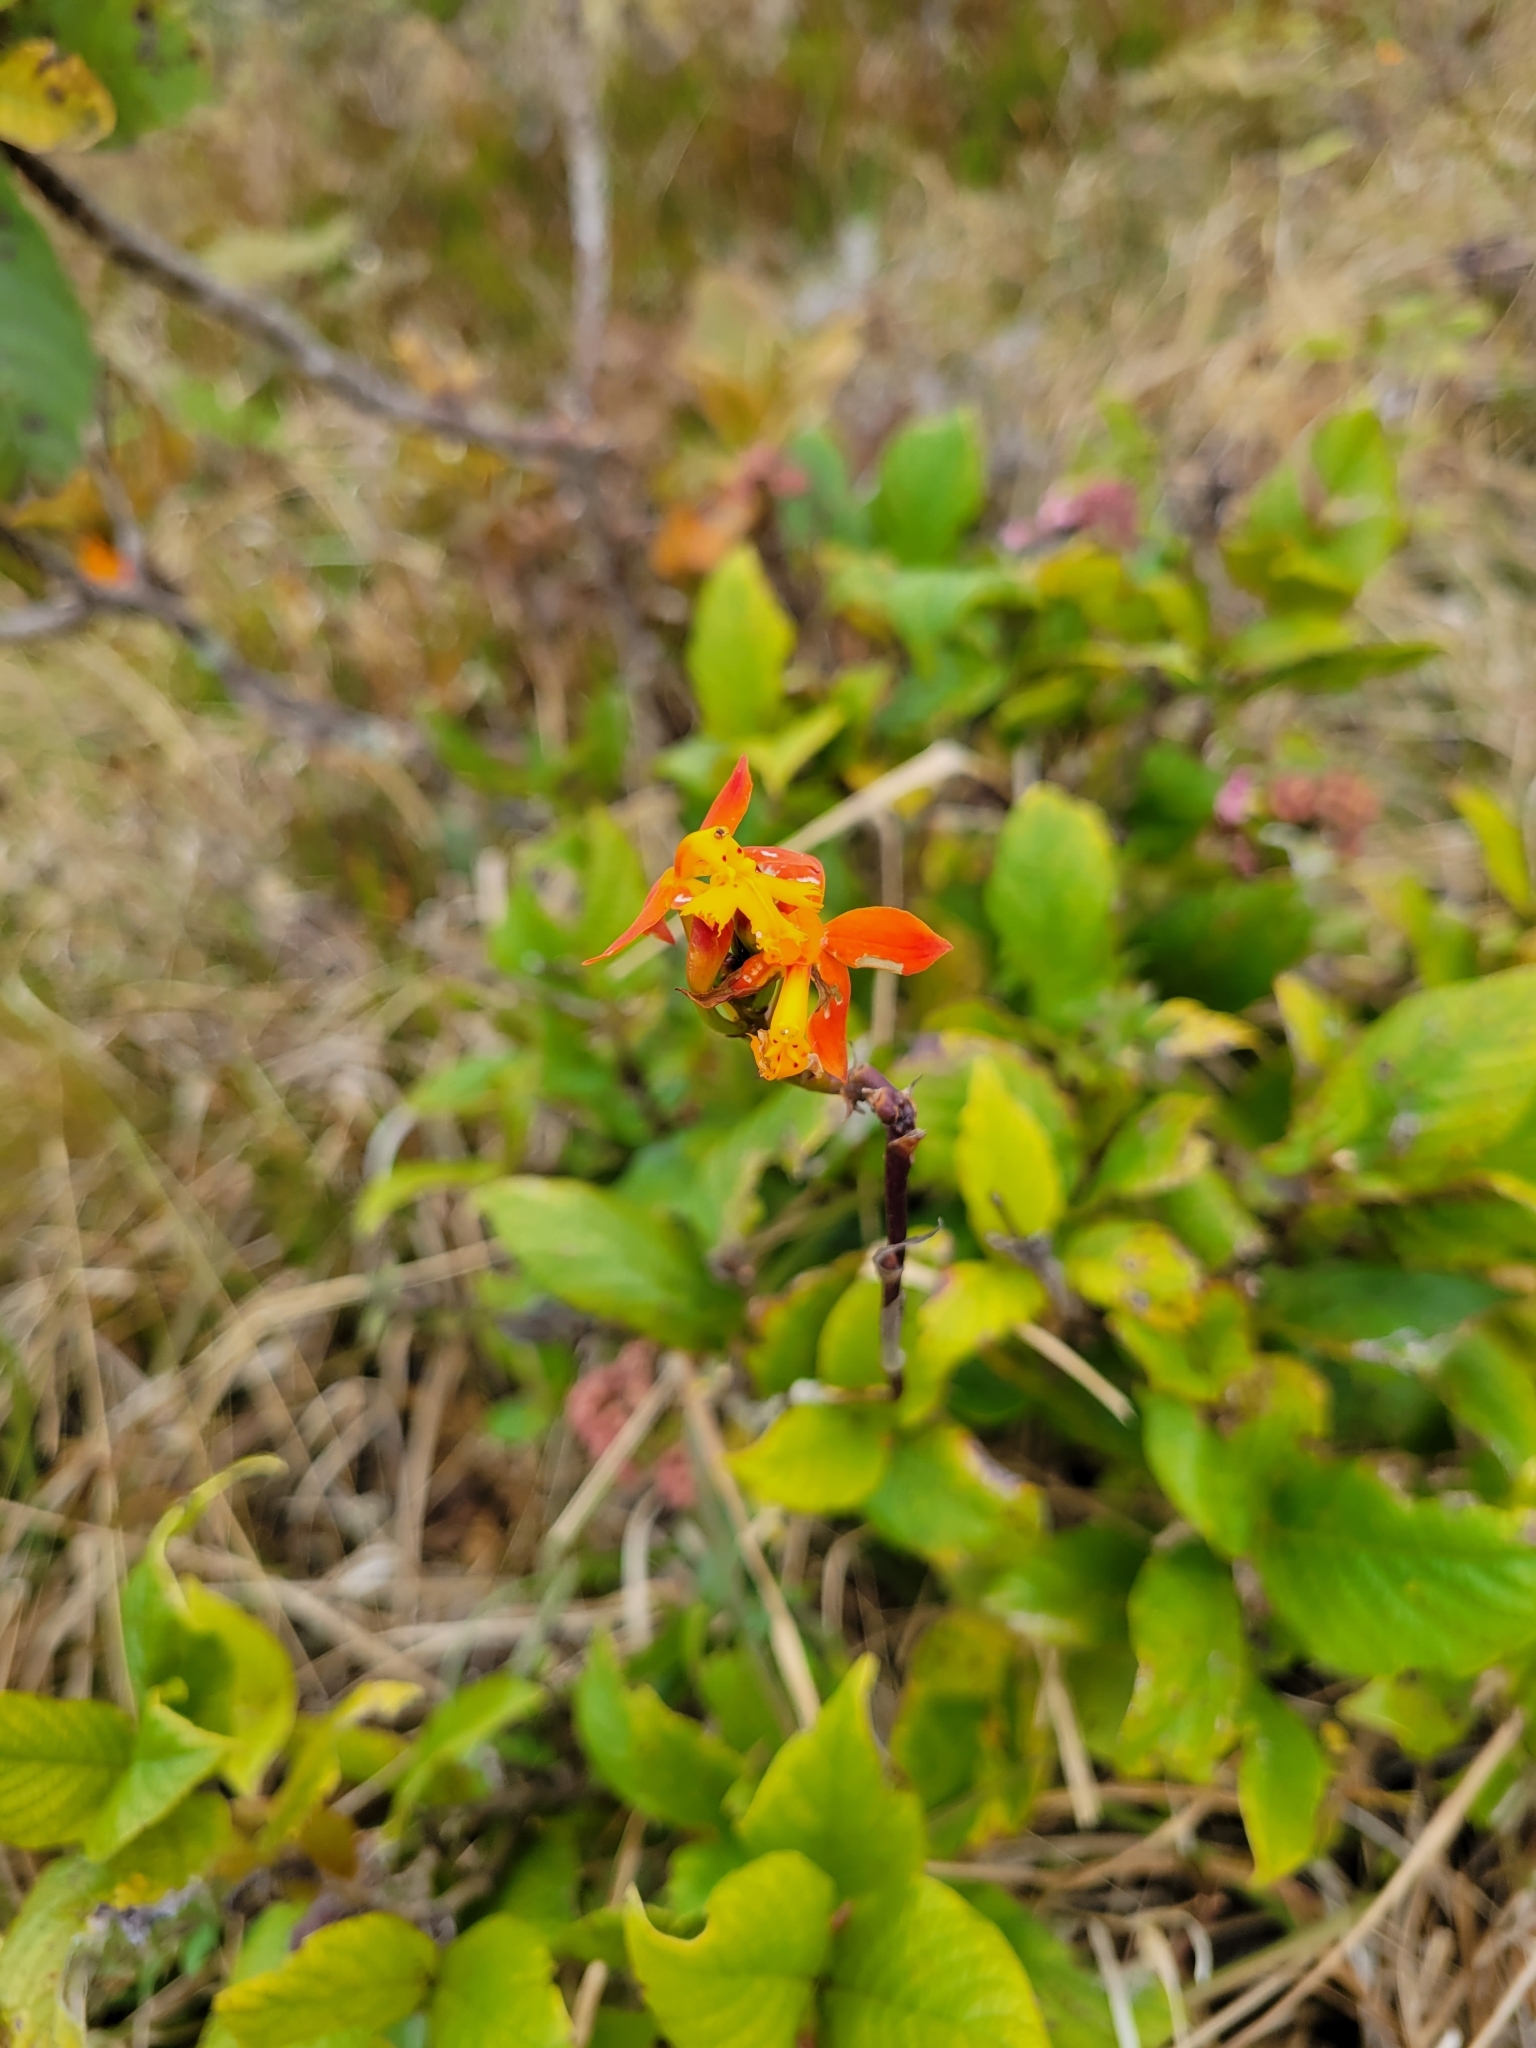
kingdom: Plantae
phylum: Tracheophyta
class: Liliopsida
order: Asparagales
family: Orchidaceae
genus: Epidendrum
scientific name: Epidendrum radicans
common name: Fire star orchid
